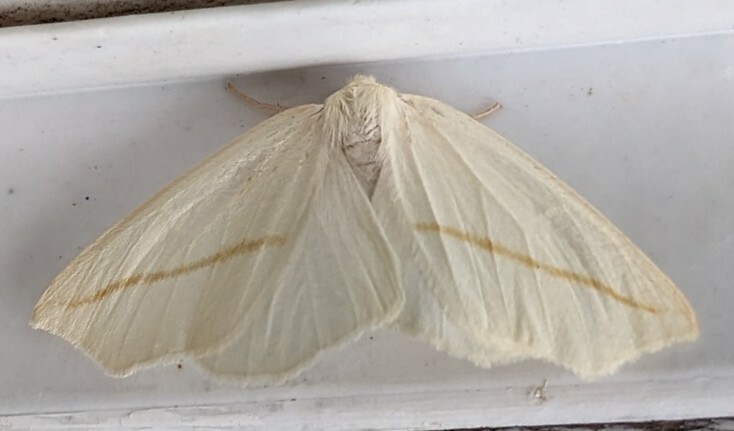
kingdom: Animalia
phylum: Arthropoda
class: Insecta
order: Lepidoptera
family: Geometridae
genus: Tetracis
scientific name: Tetracis cachexiata
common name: White slant-line
